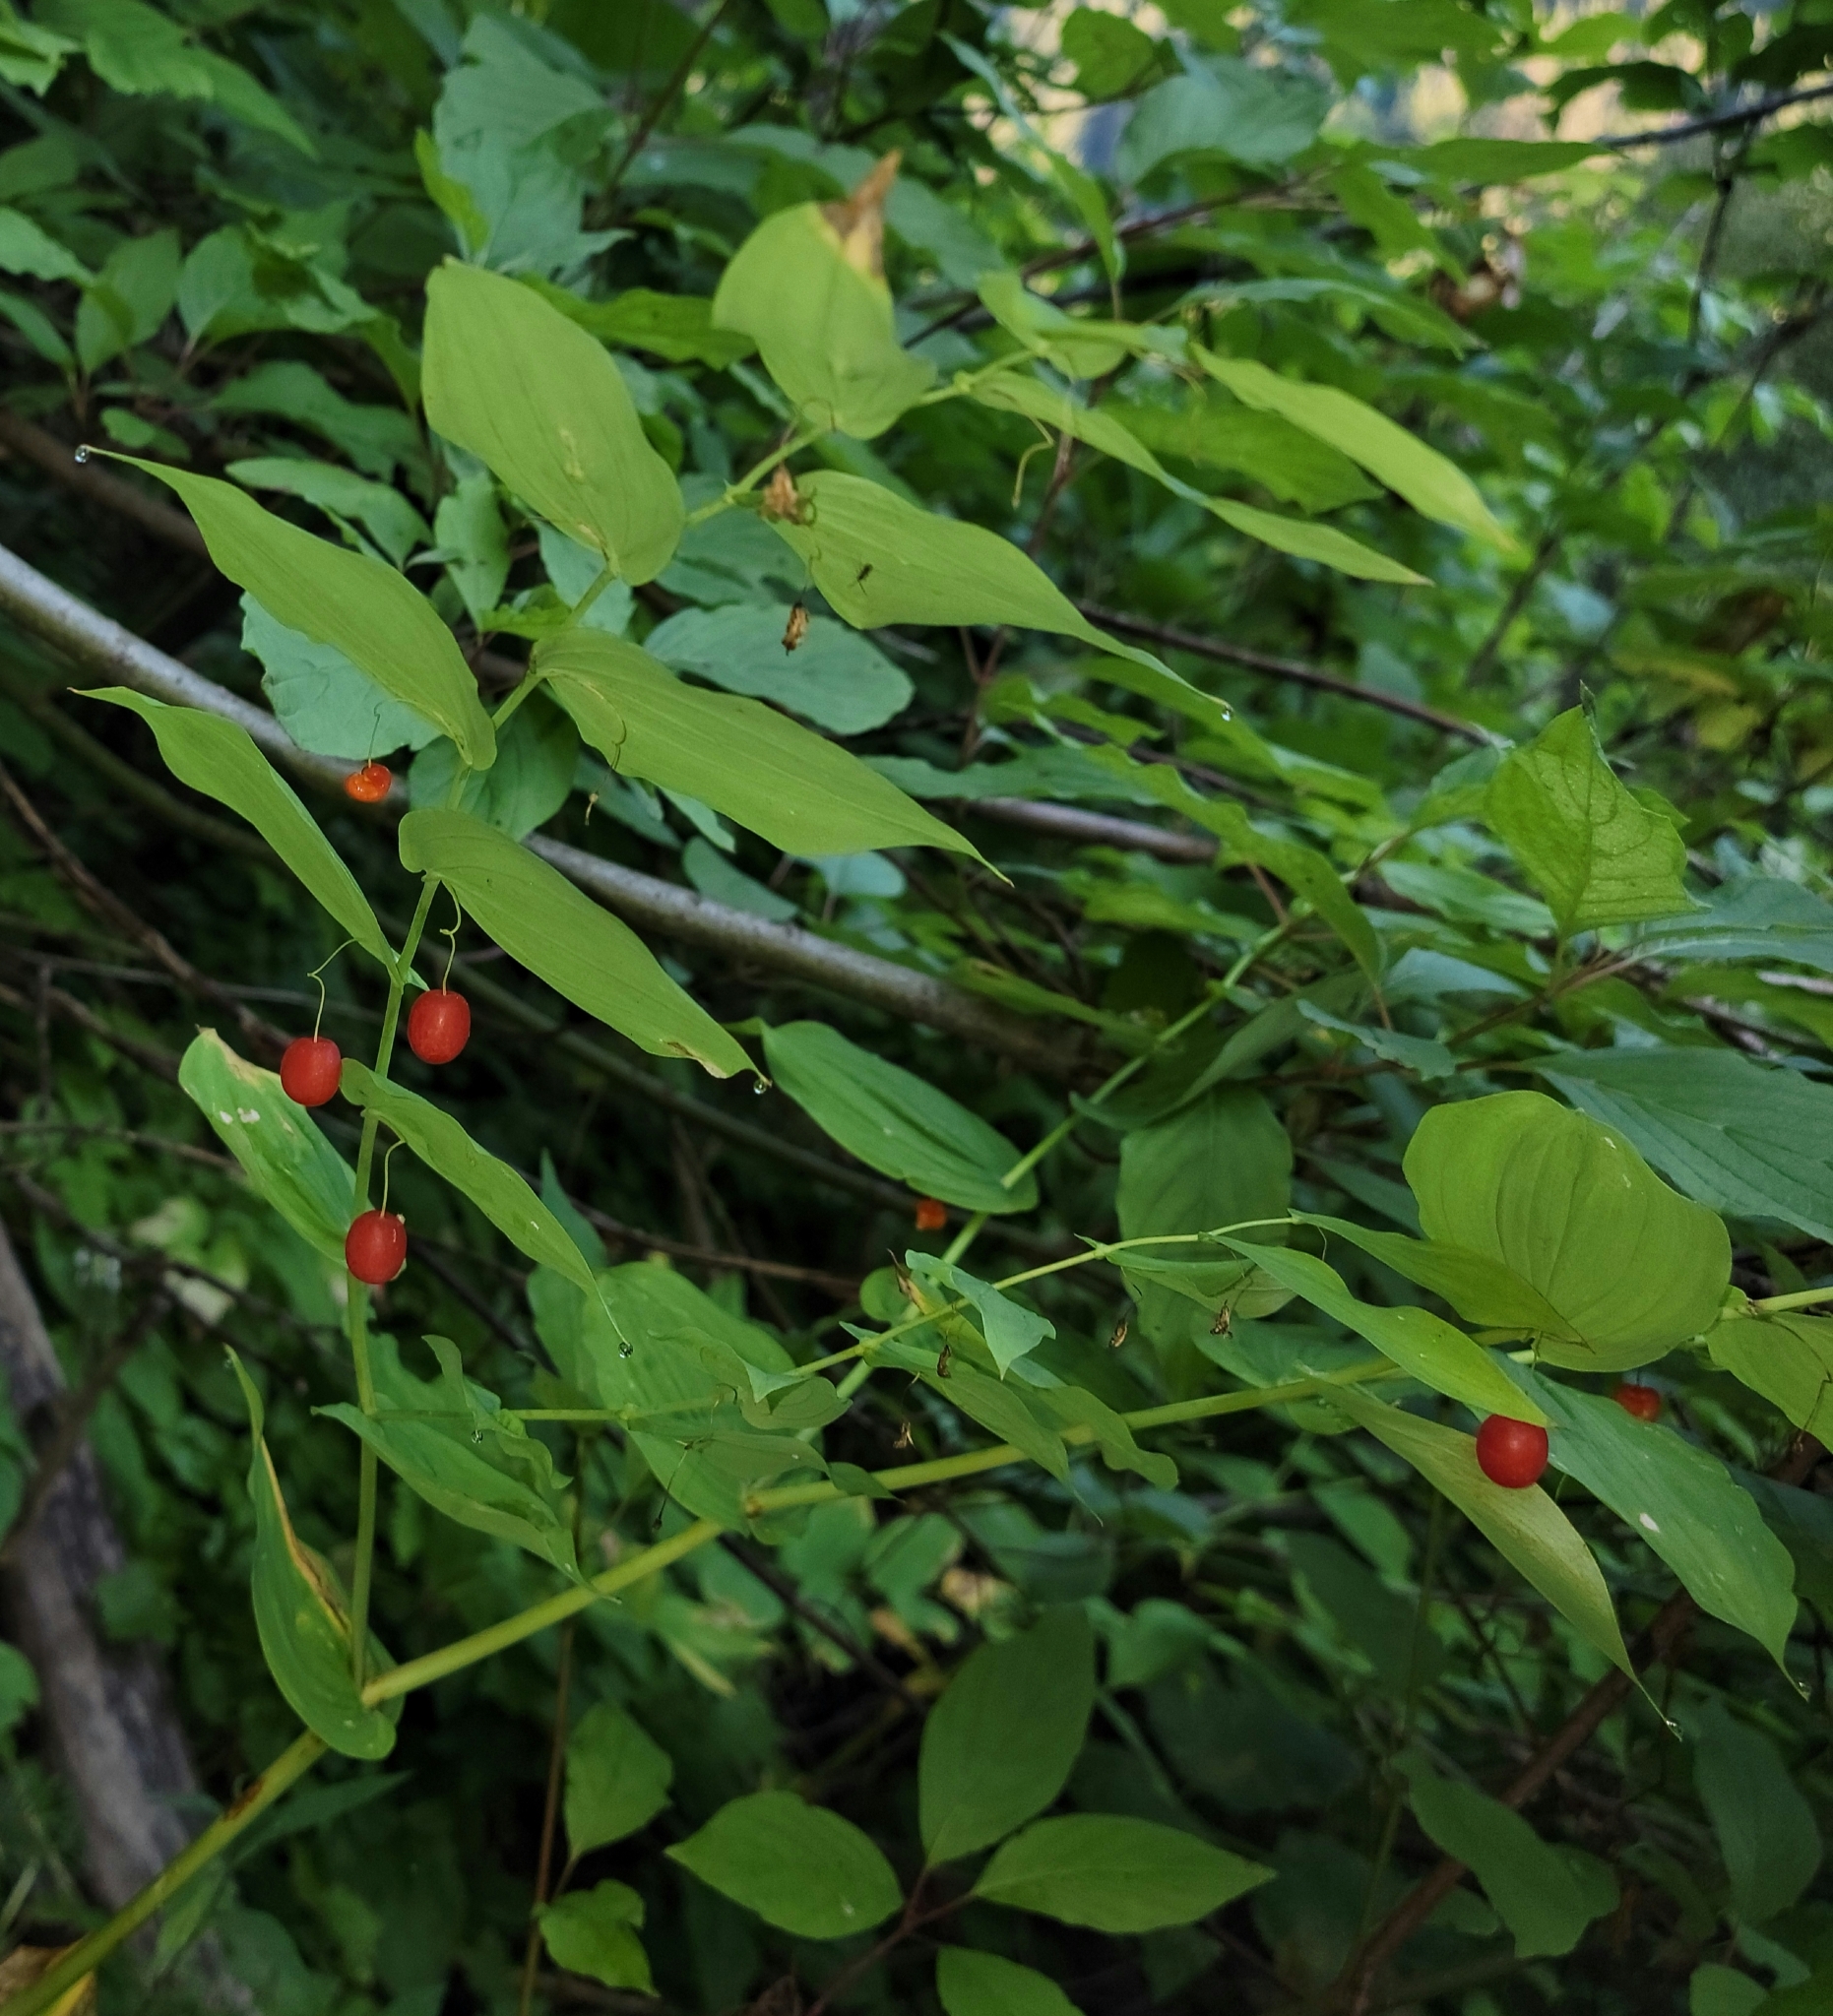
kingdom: Plantae
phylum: Tracheophyta
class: Liliopsida
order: Liliales
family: Liliaceae
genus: Streptopus
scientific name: Streptopus amplexifolius
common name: Clasp twisted stalk
